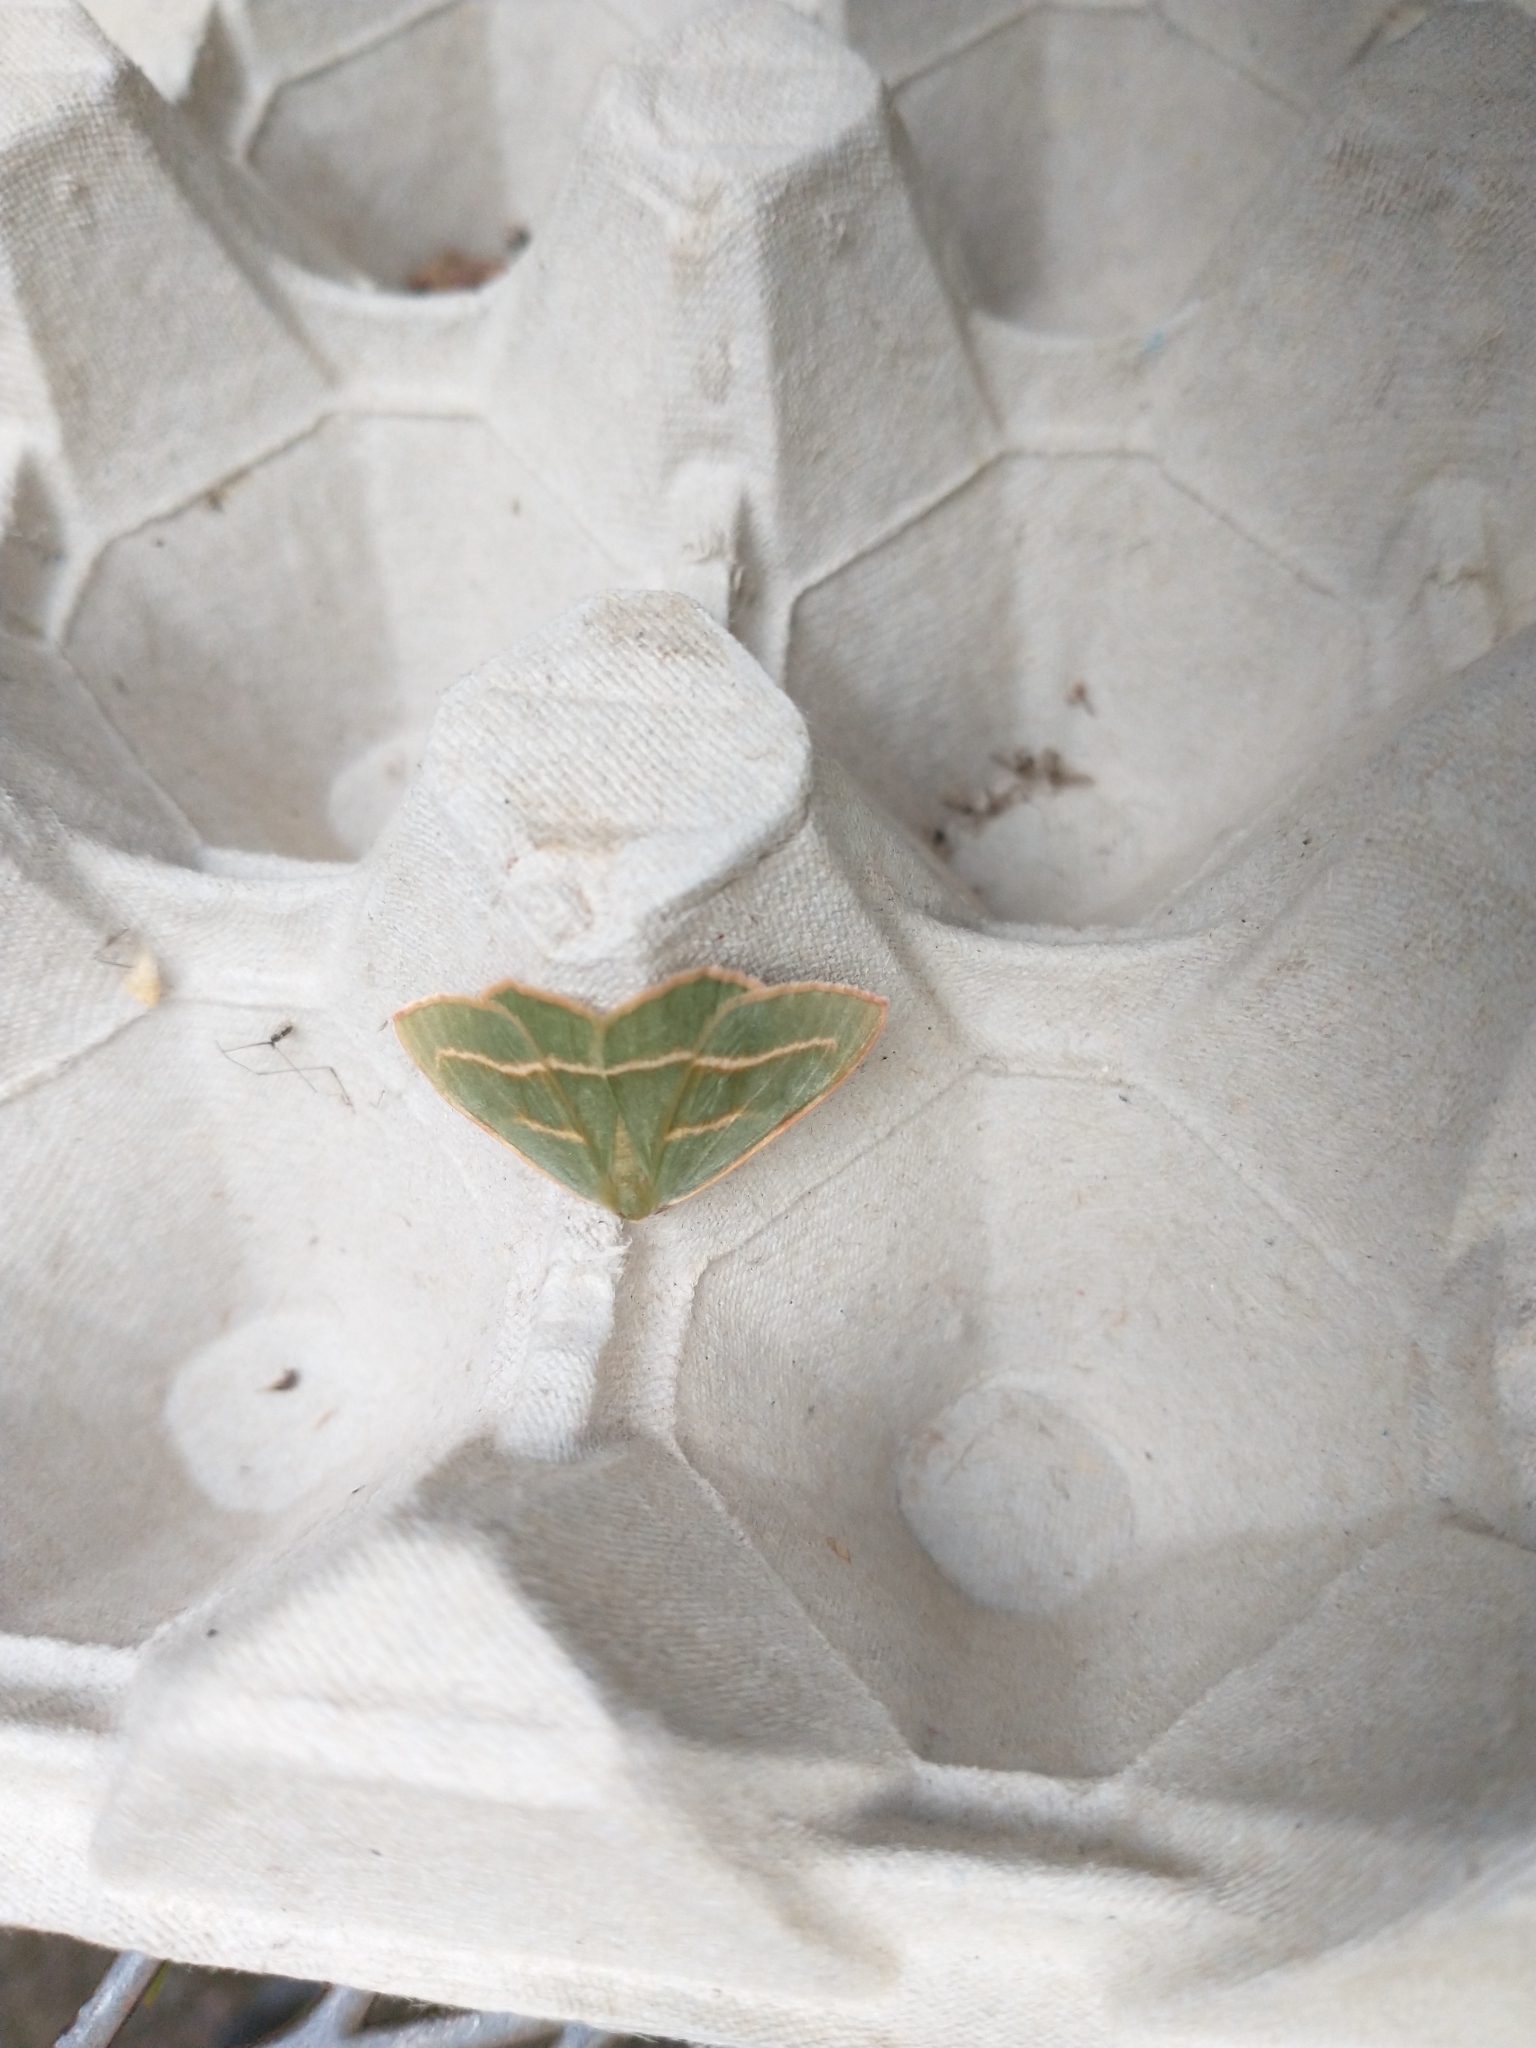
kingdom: Animalia
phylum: Arthropoda
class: Insecta
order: Lepidoptera
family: Geometridae
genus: Hylaea
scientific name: Hylaea fasciaria
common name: Barred red
